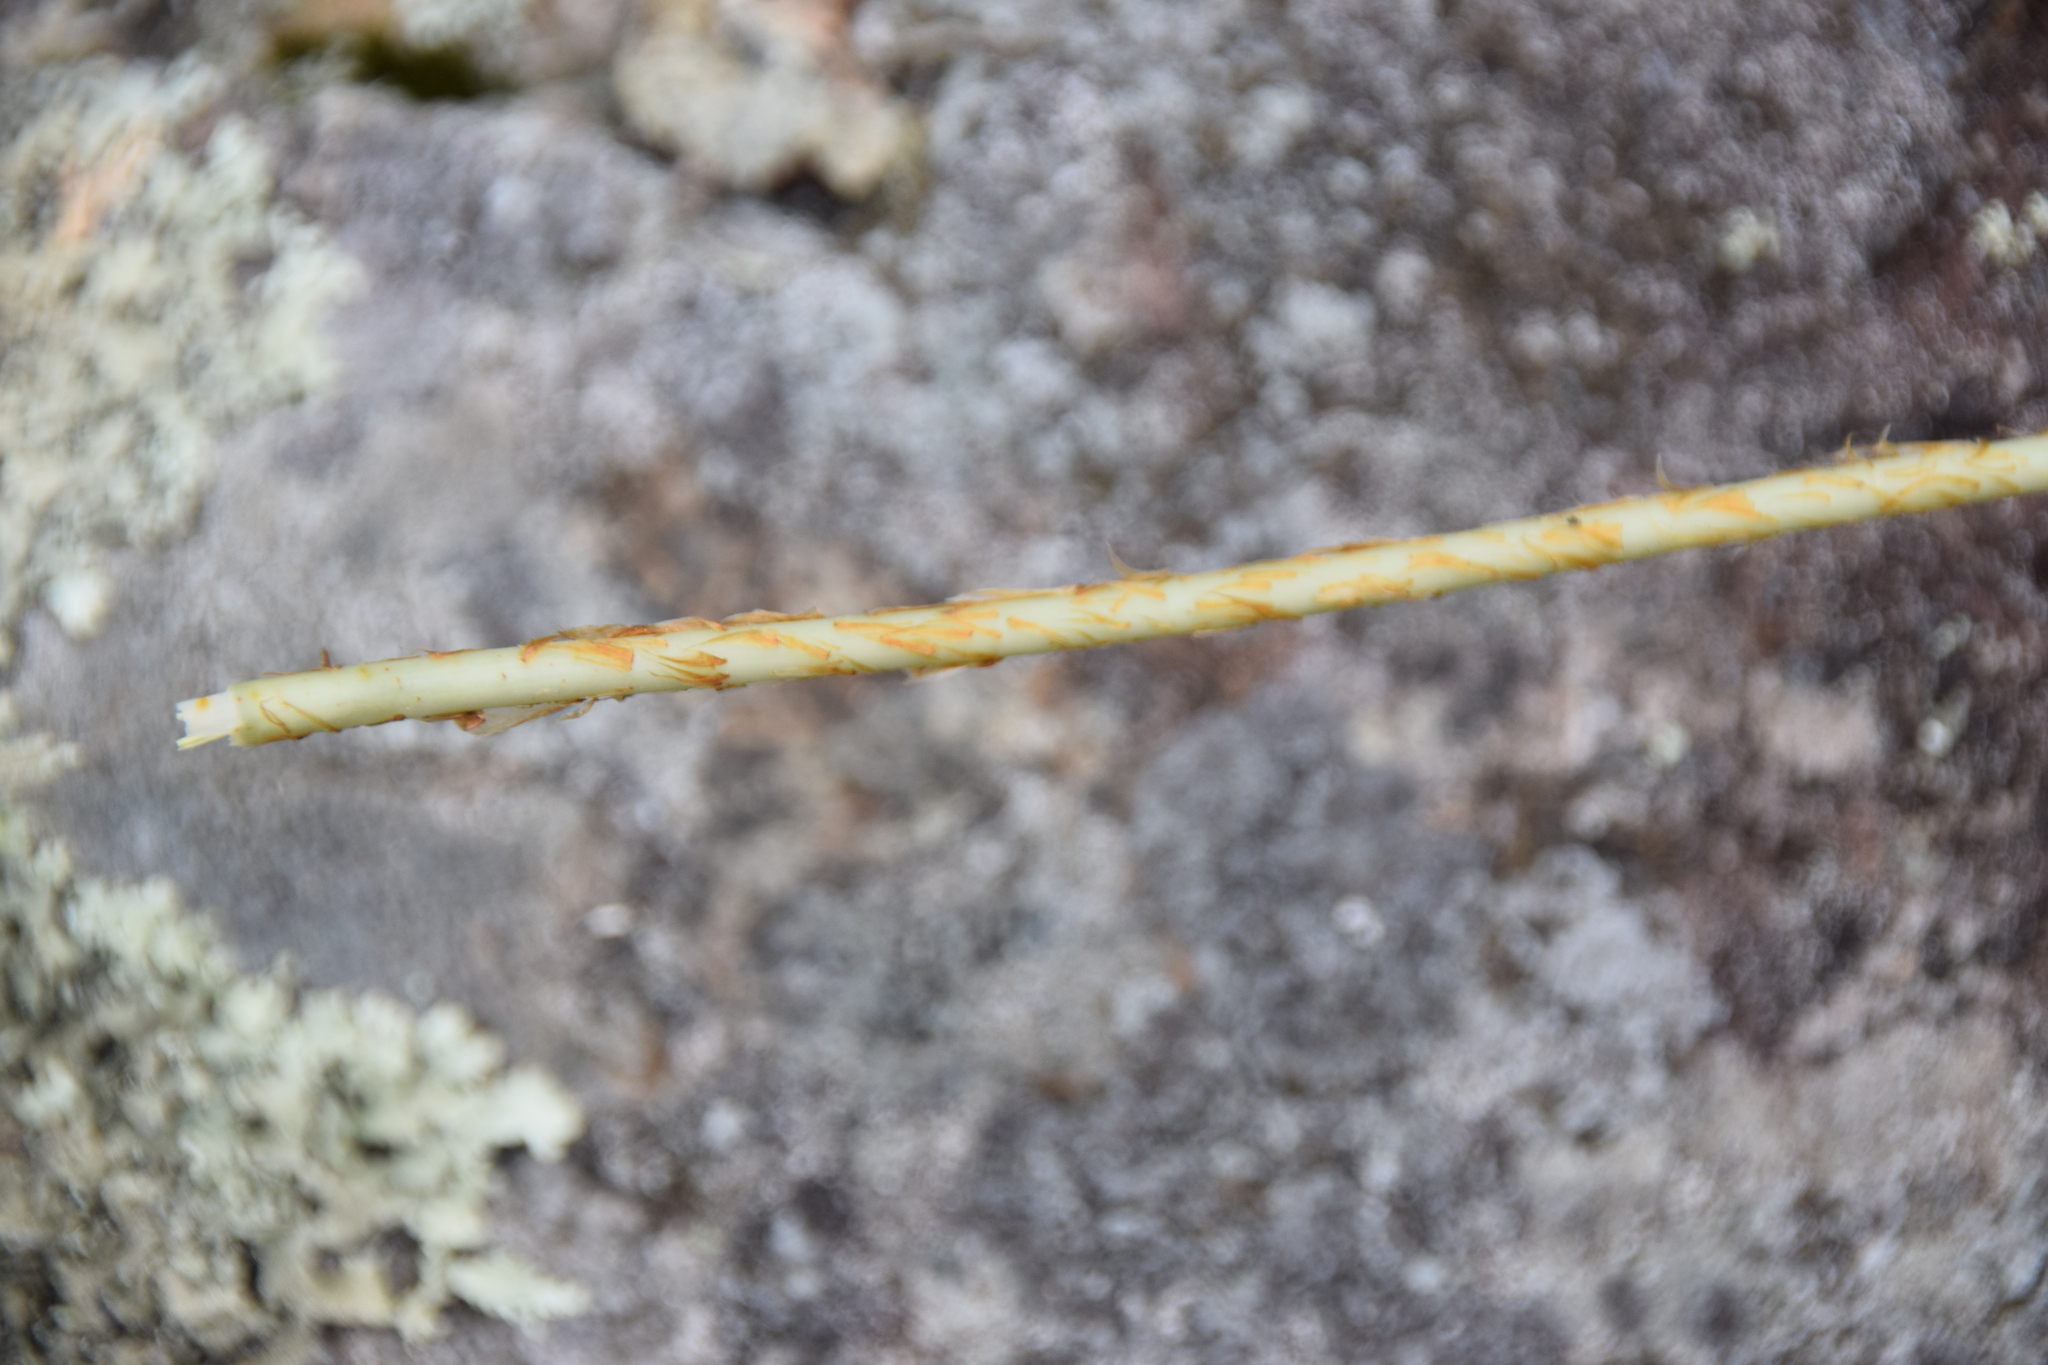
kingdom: Plantae
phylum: Tracheophyta
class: Polypodiopsida
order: Polypodiales
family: Dryopteridaceae
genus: Dryopteris
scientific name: Dryopteris marginalis
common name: Marginal wood fern
